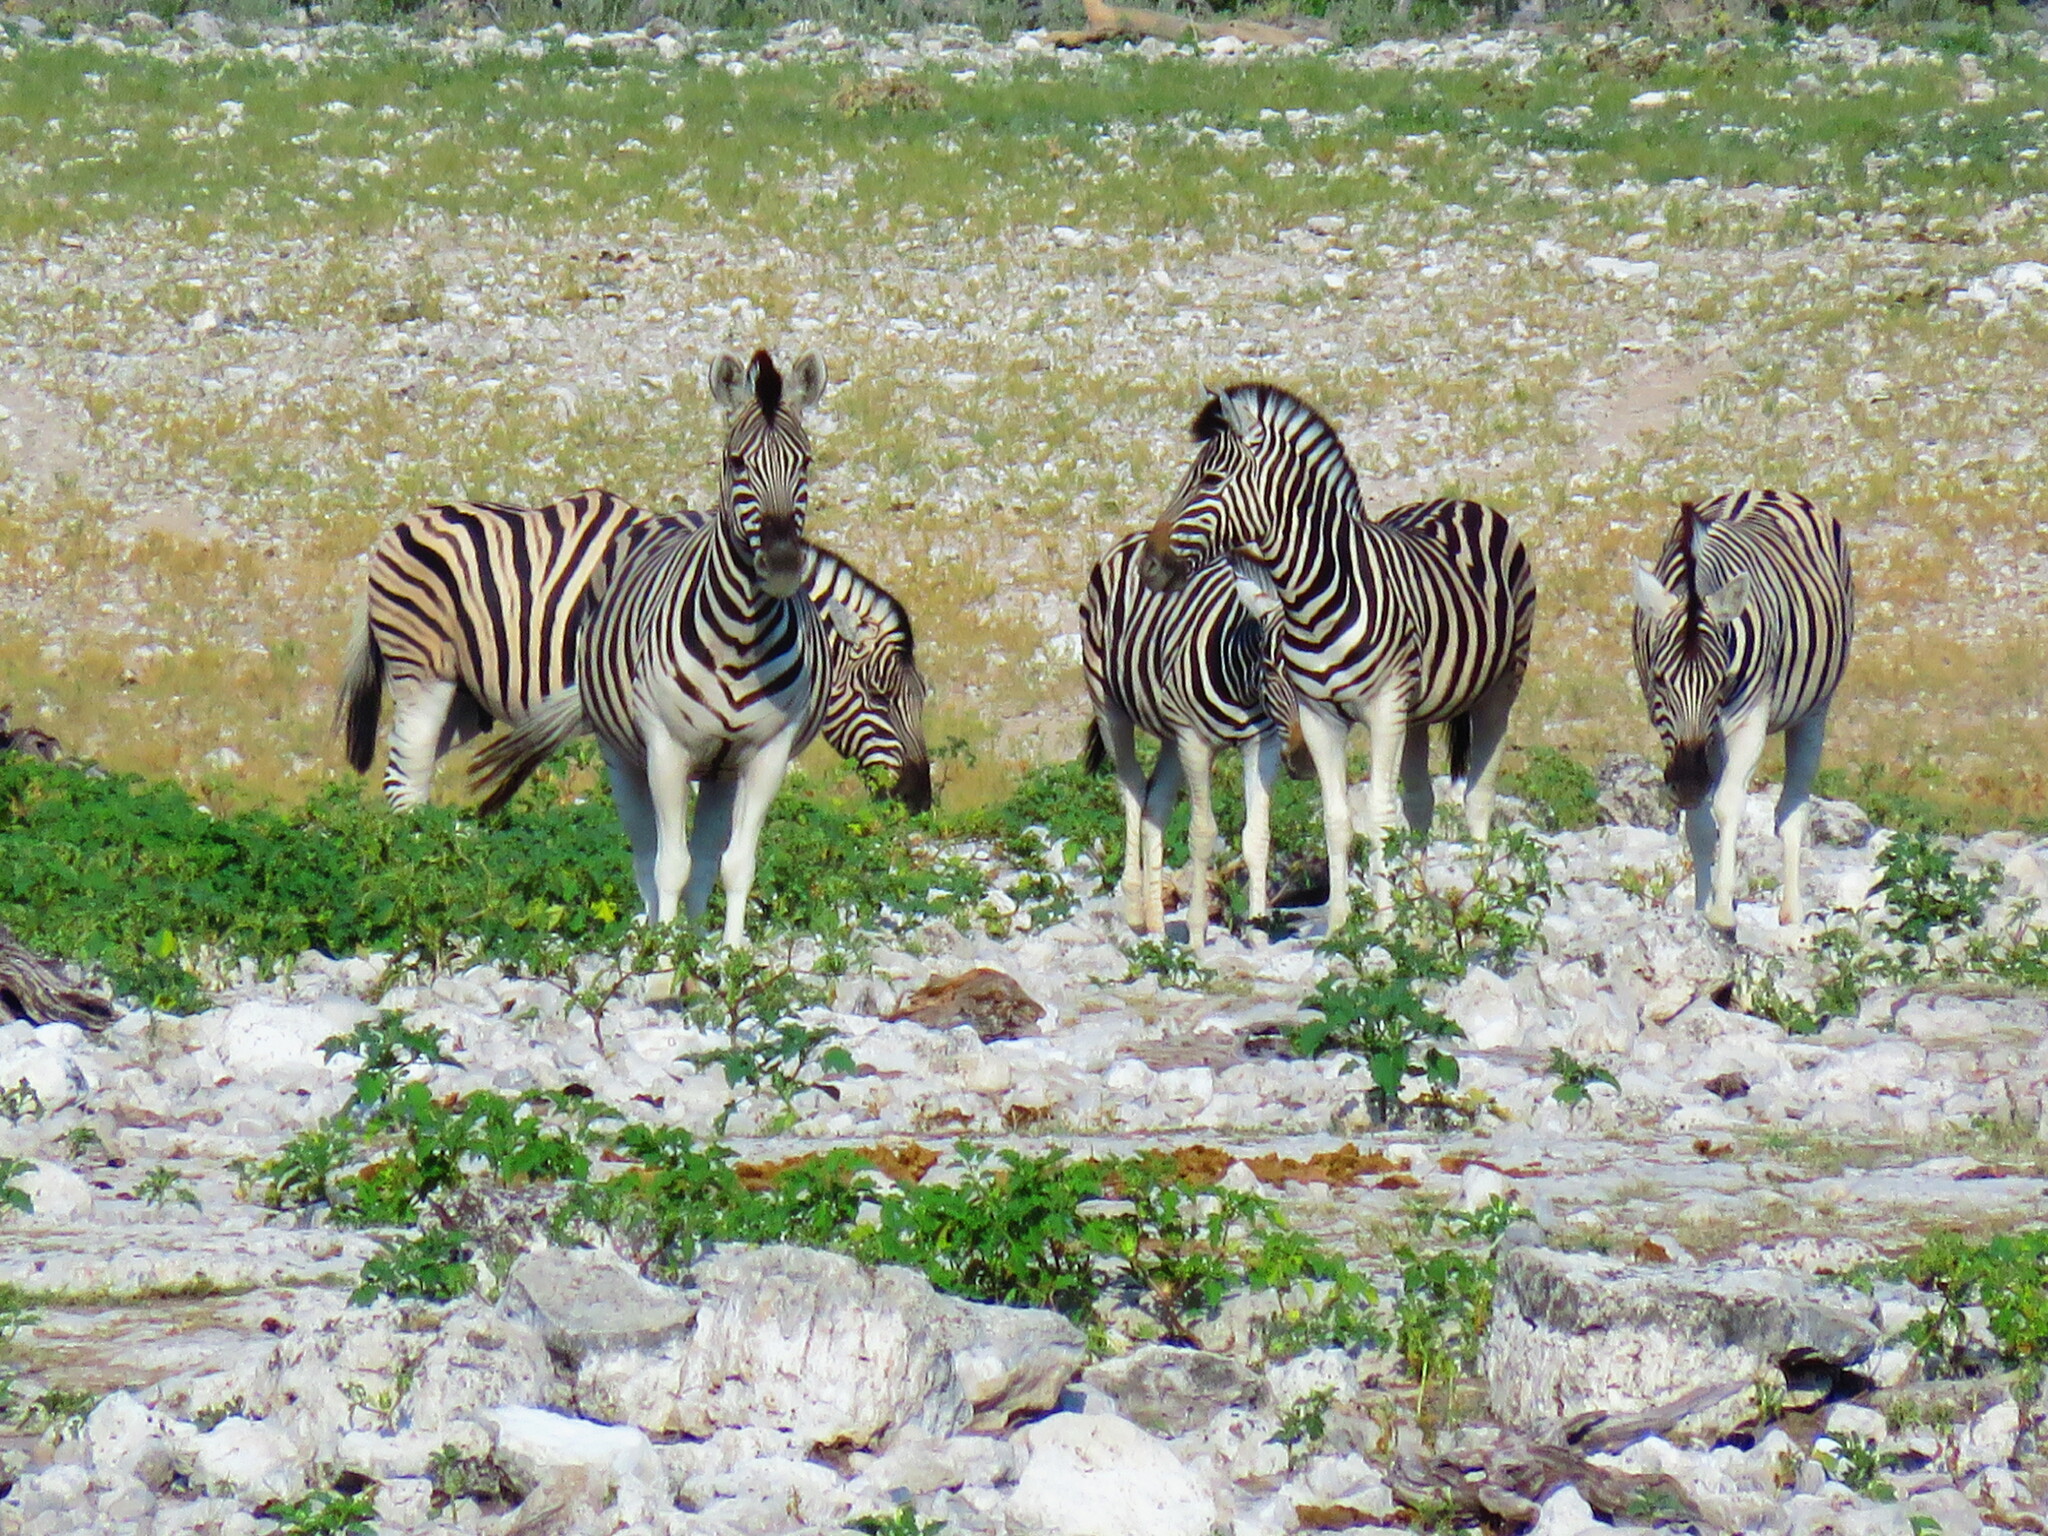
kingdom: Animalia
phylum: Chordata
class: Mammalia
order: Perissodactyla
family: Equidae
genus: Equus
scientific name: Equus quagga
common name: Plains zebra
